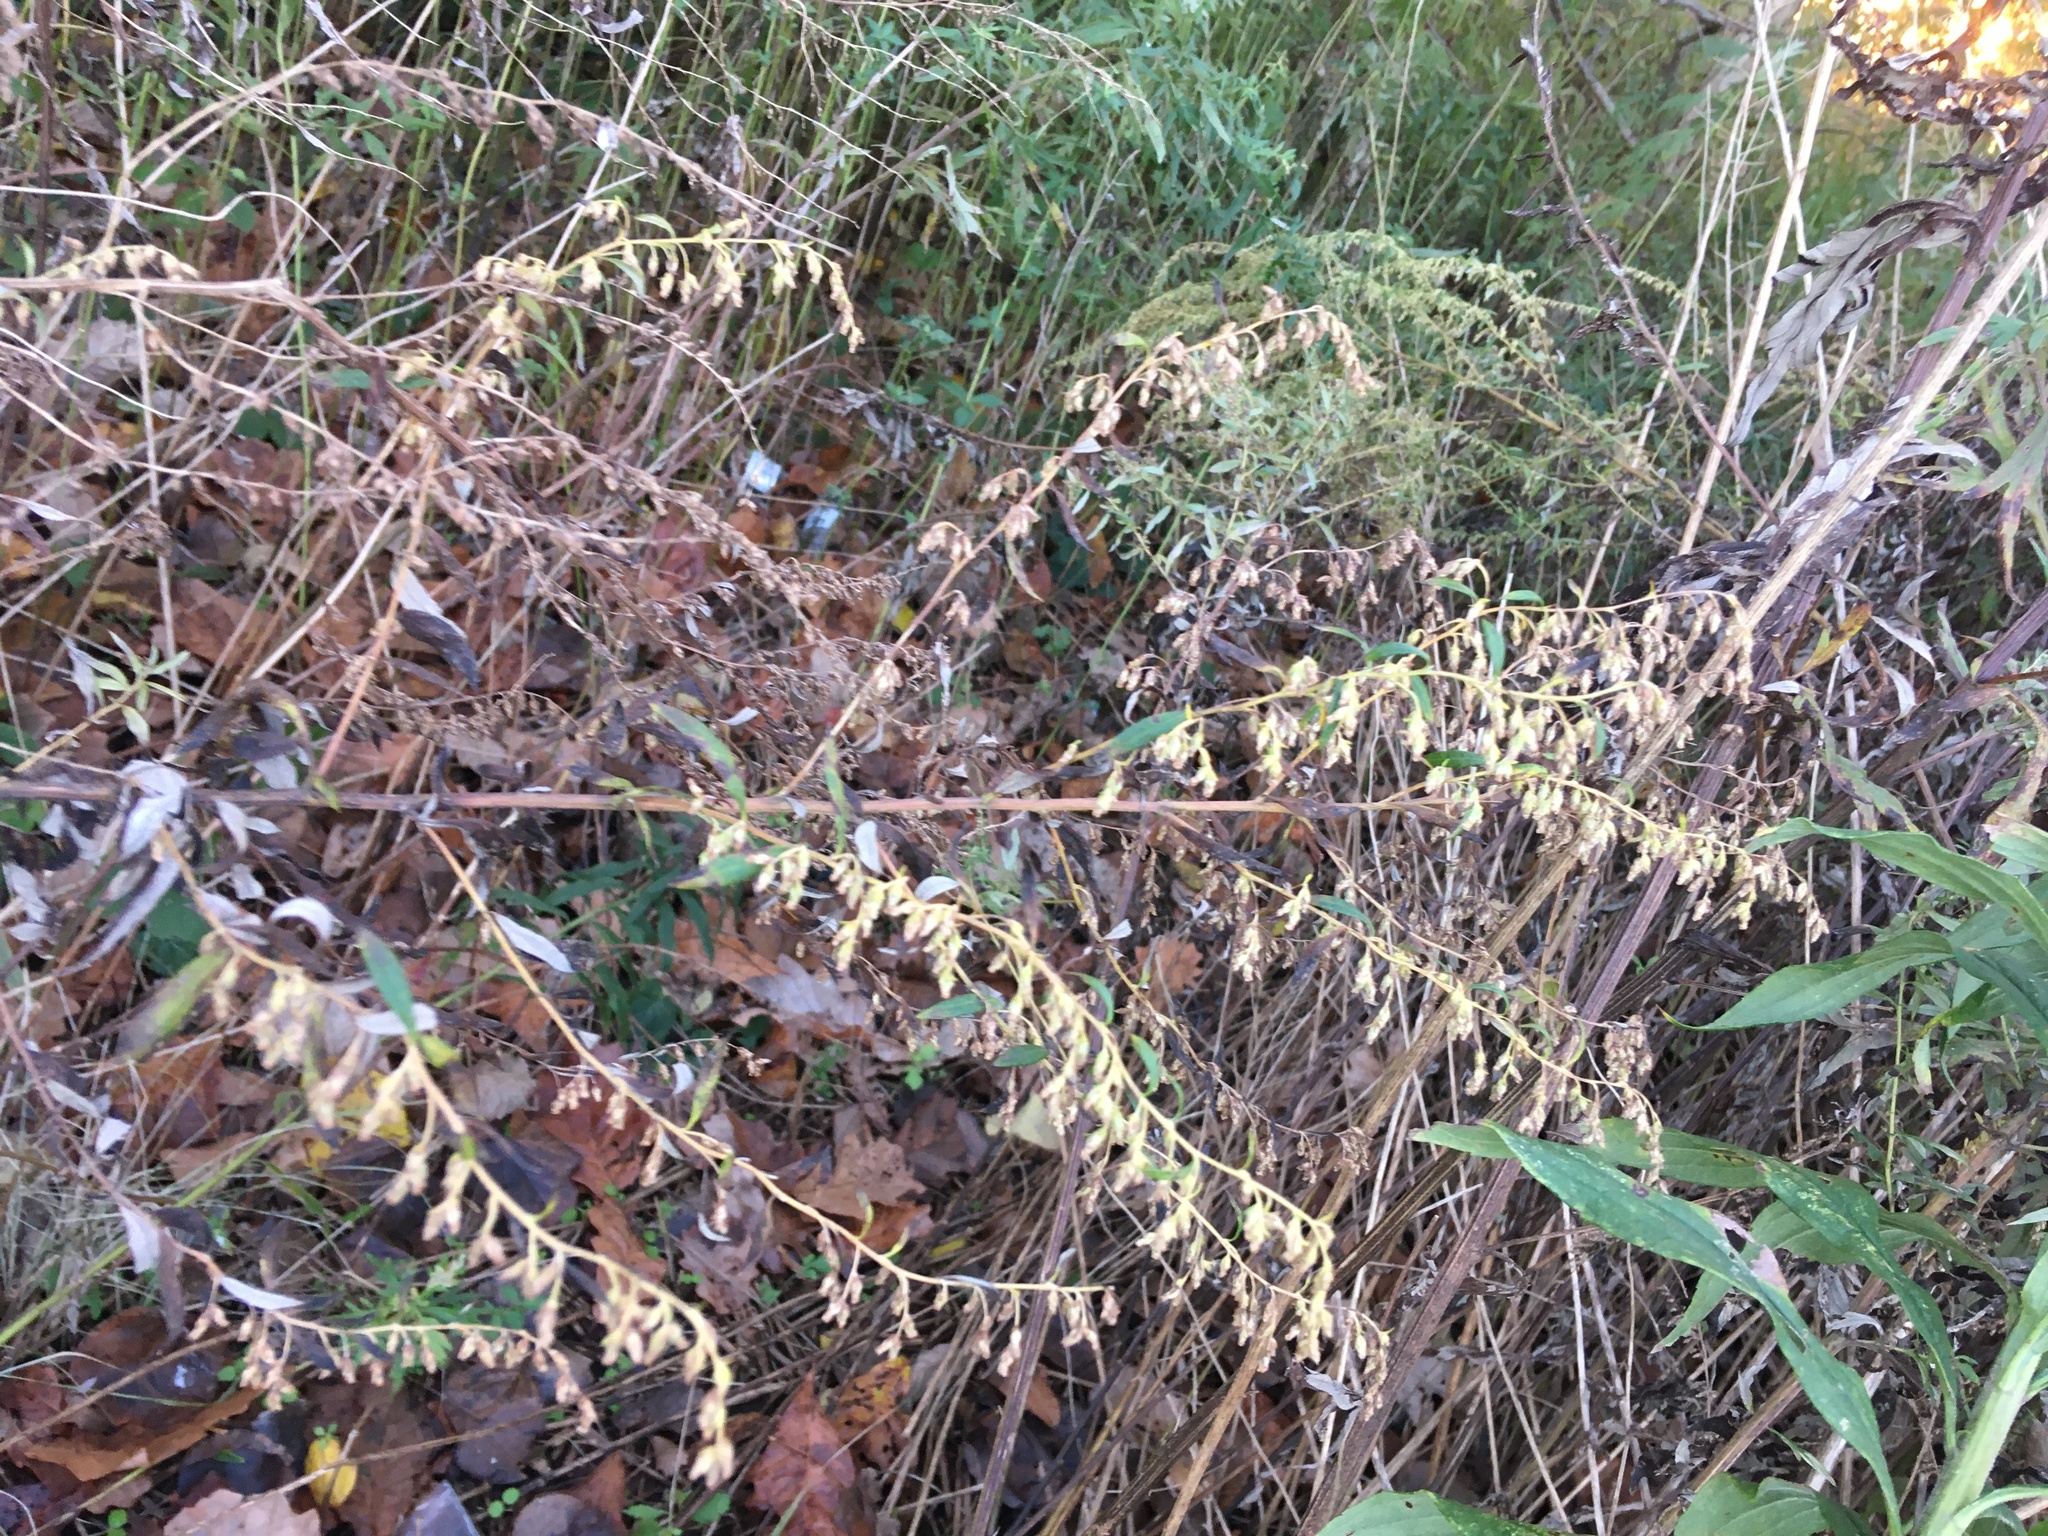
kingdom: Plantae
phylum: Tracheophyta
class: Magnoliopsida
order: Asterales
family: Asteraceae
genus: Artemisia
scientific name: Artemisia vulgaris
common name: Mugwort
